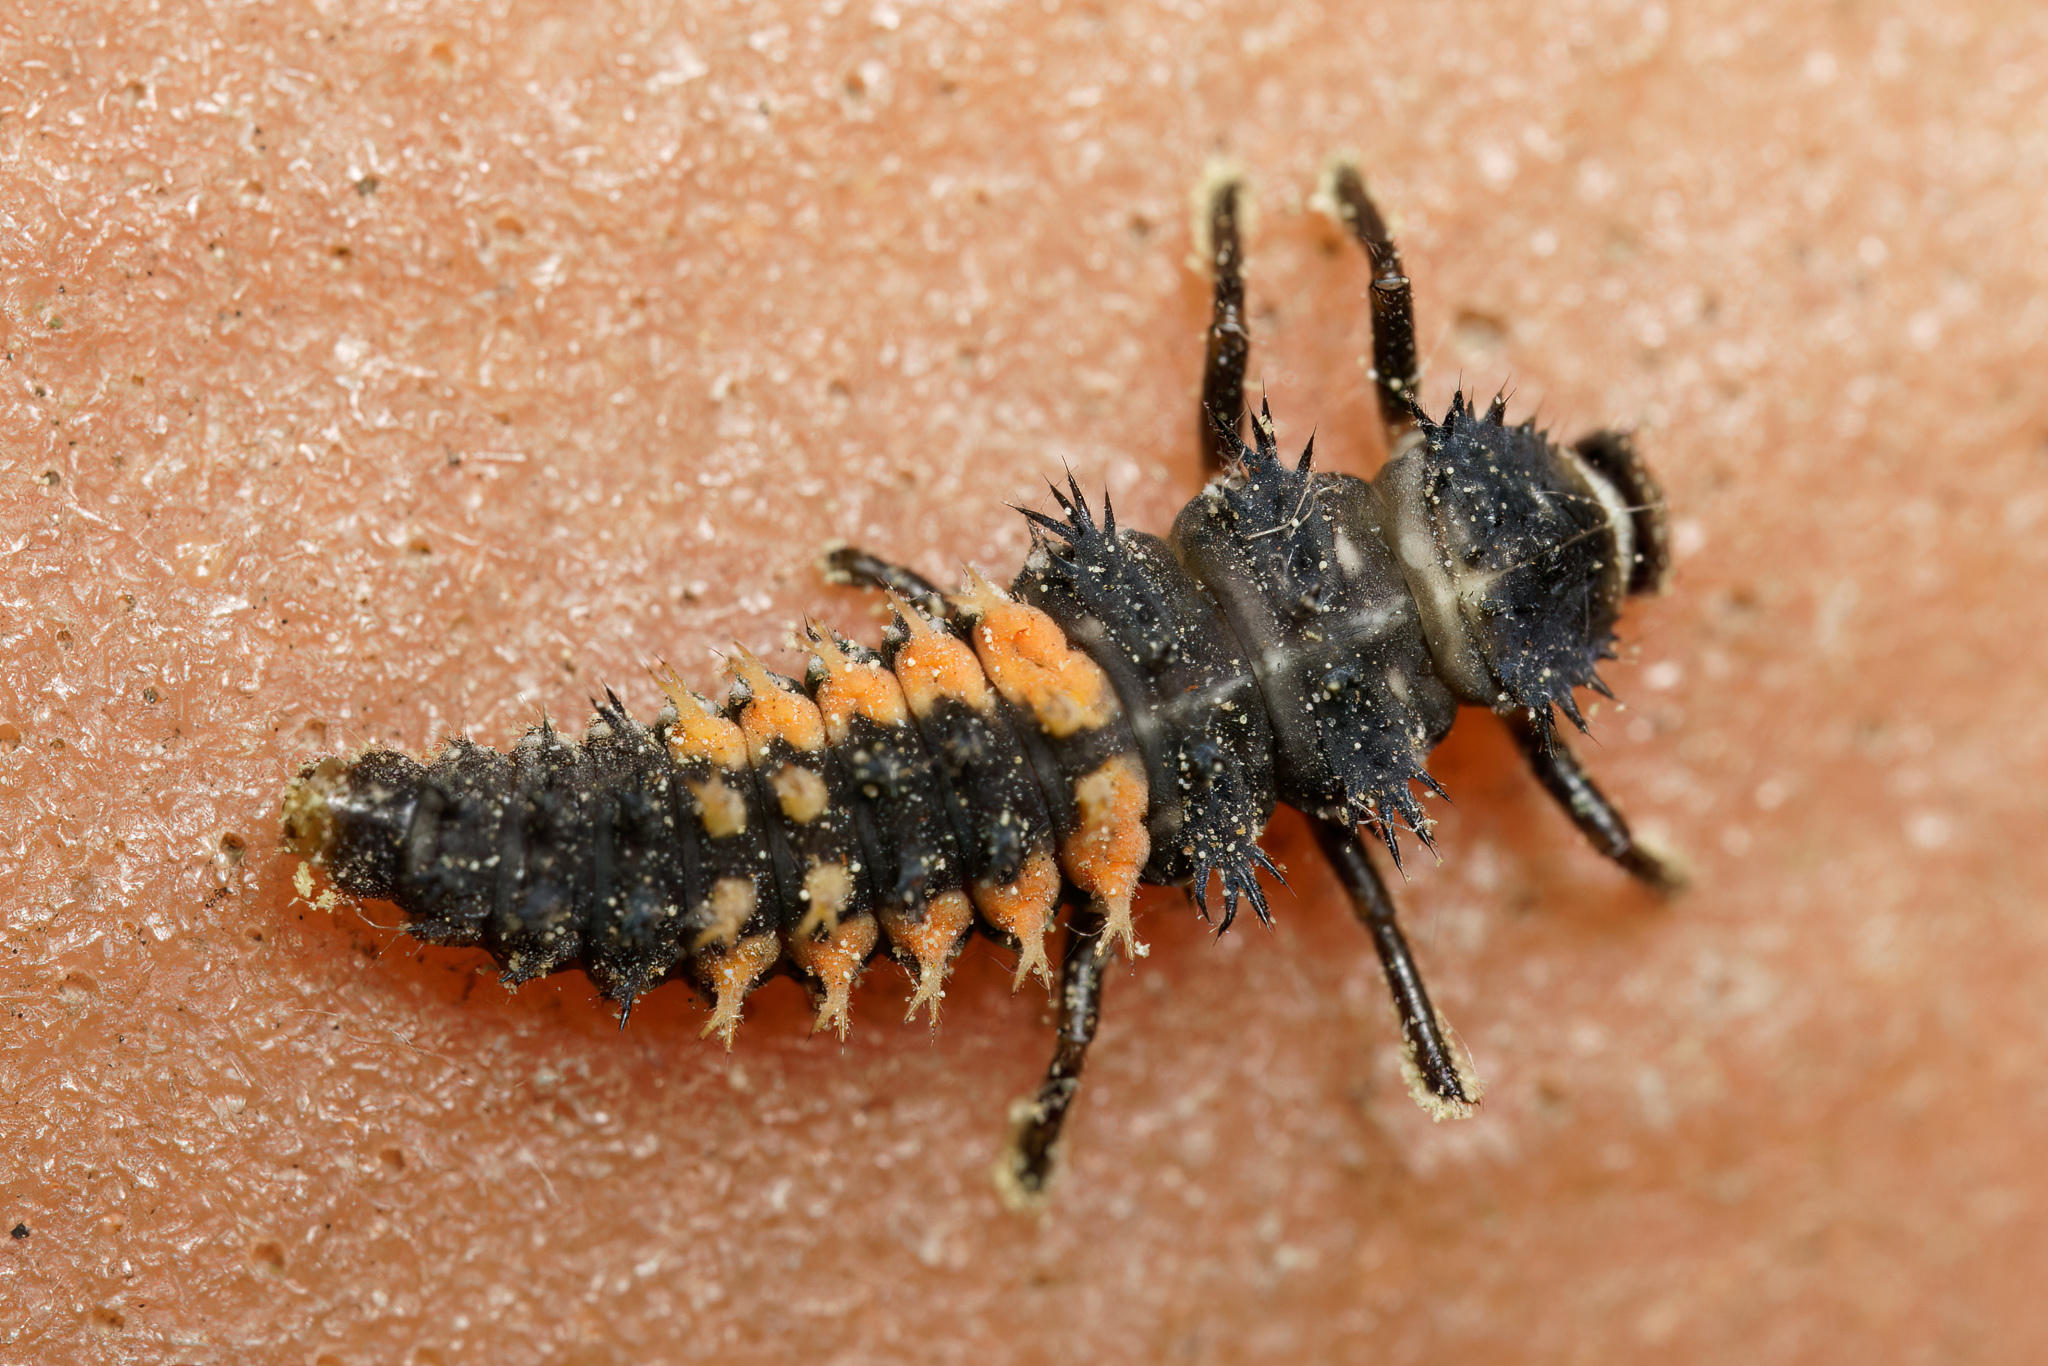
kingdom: Animalia
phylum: Arthropoda
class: Insecta
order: Coleoptera
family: Coccinellidae
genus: Harmonia
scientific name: Harmonia axyridis
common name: Harlequin ladybird
